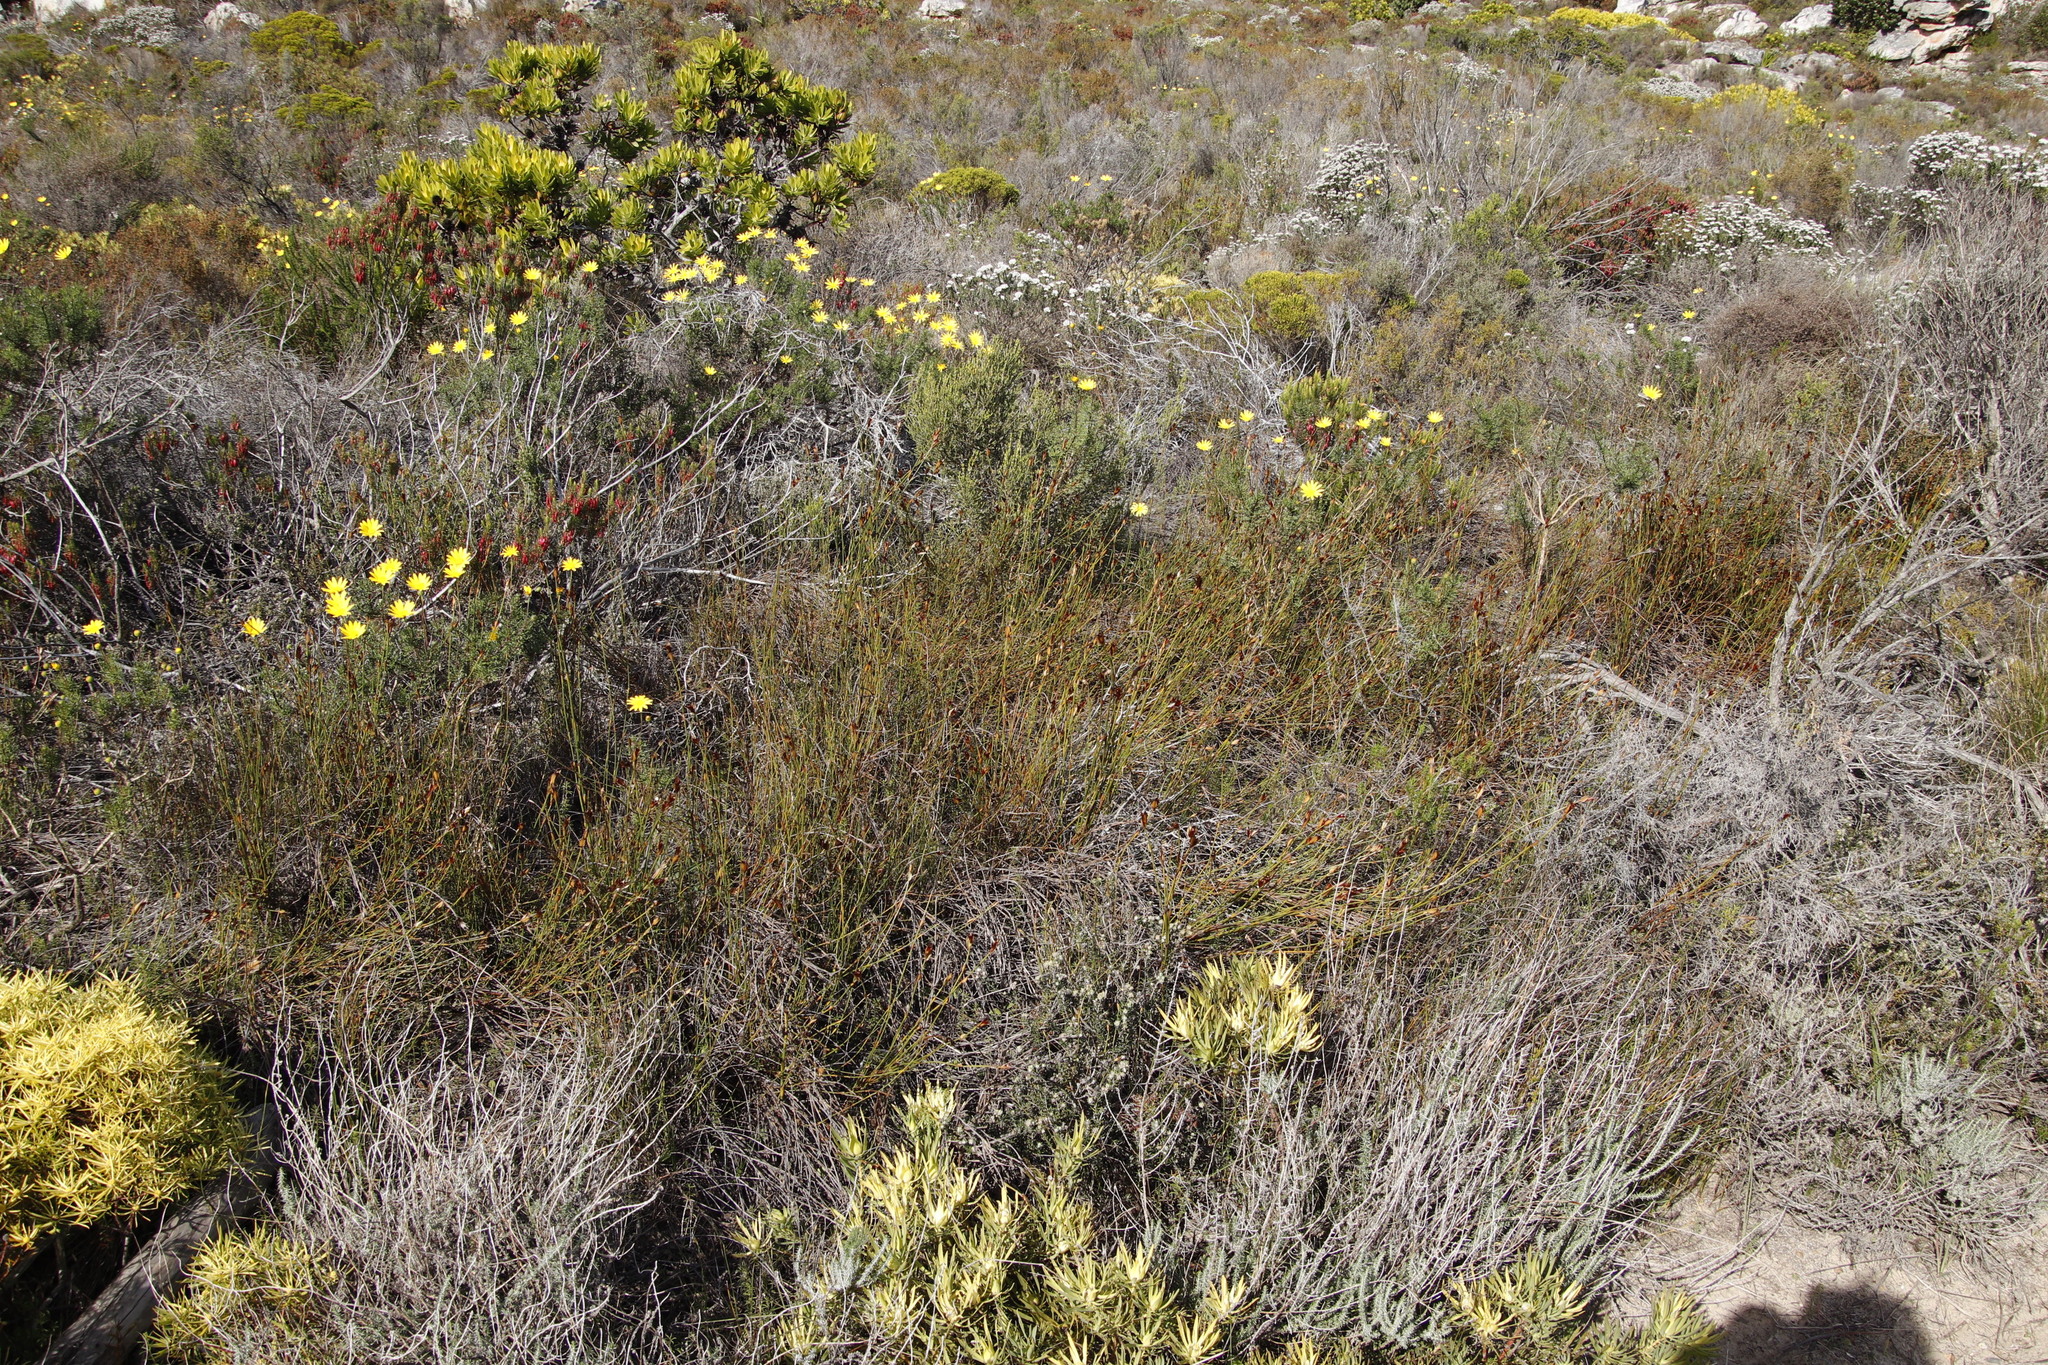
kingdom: Plantae
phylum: Tracheophyta
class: Liliopsida
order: Poales
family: Restionaceae
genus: Willdenowia
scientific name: Willdenowia teres
